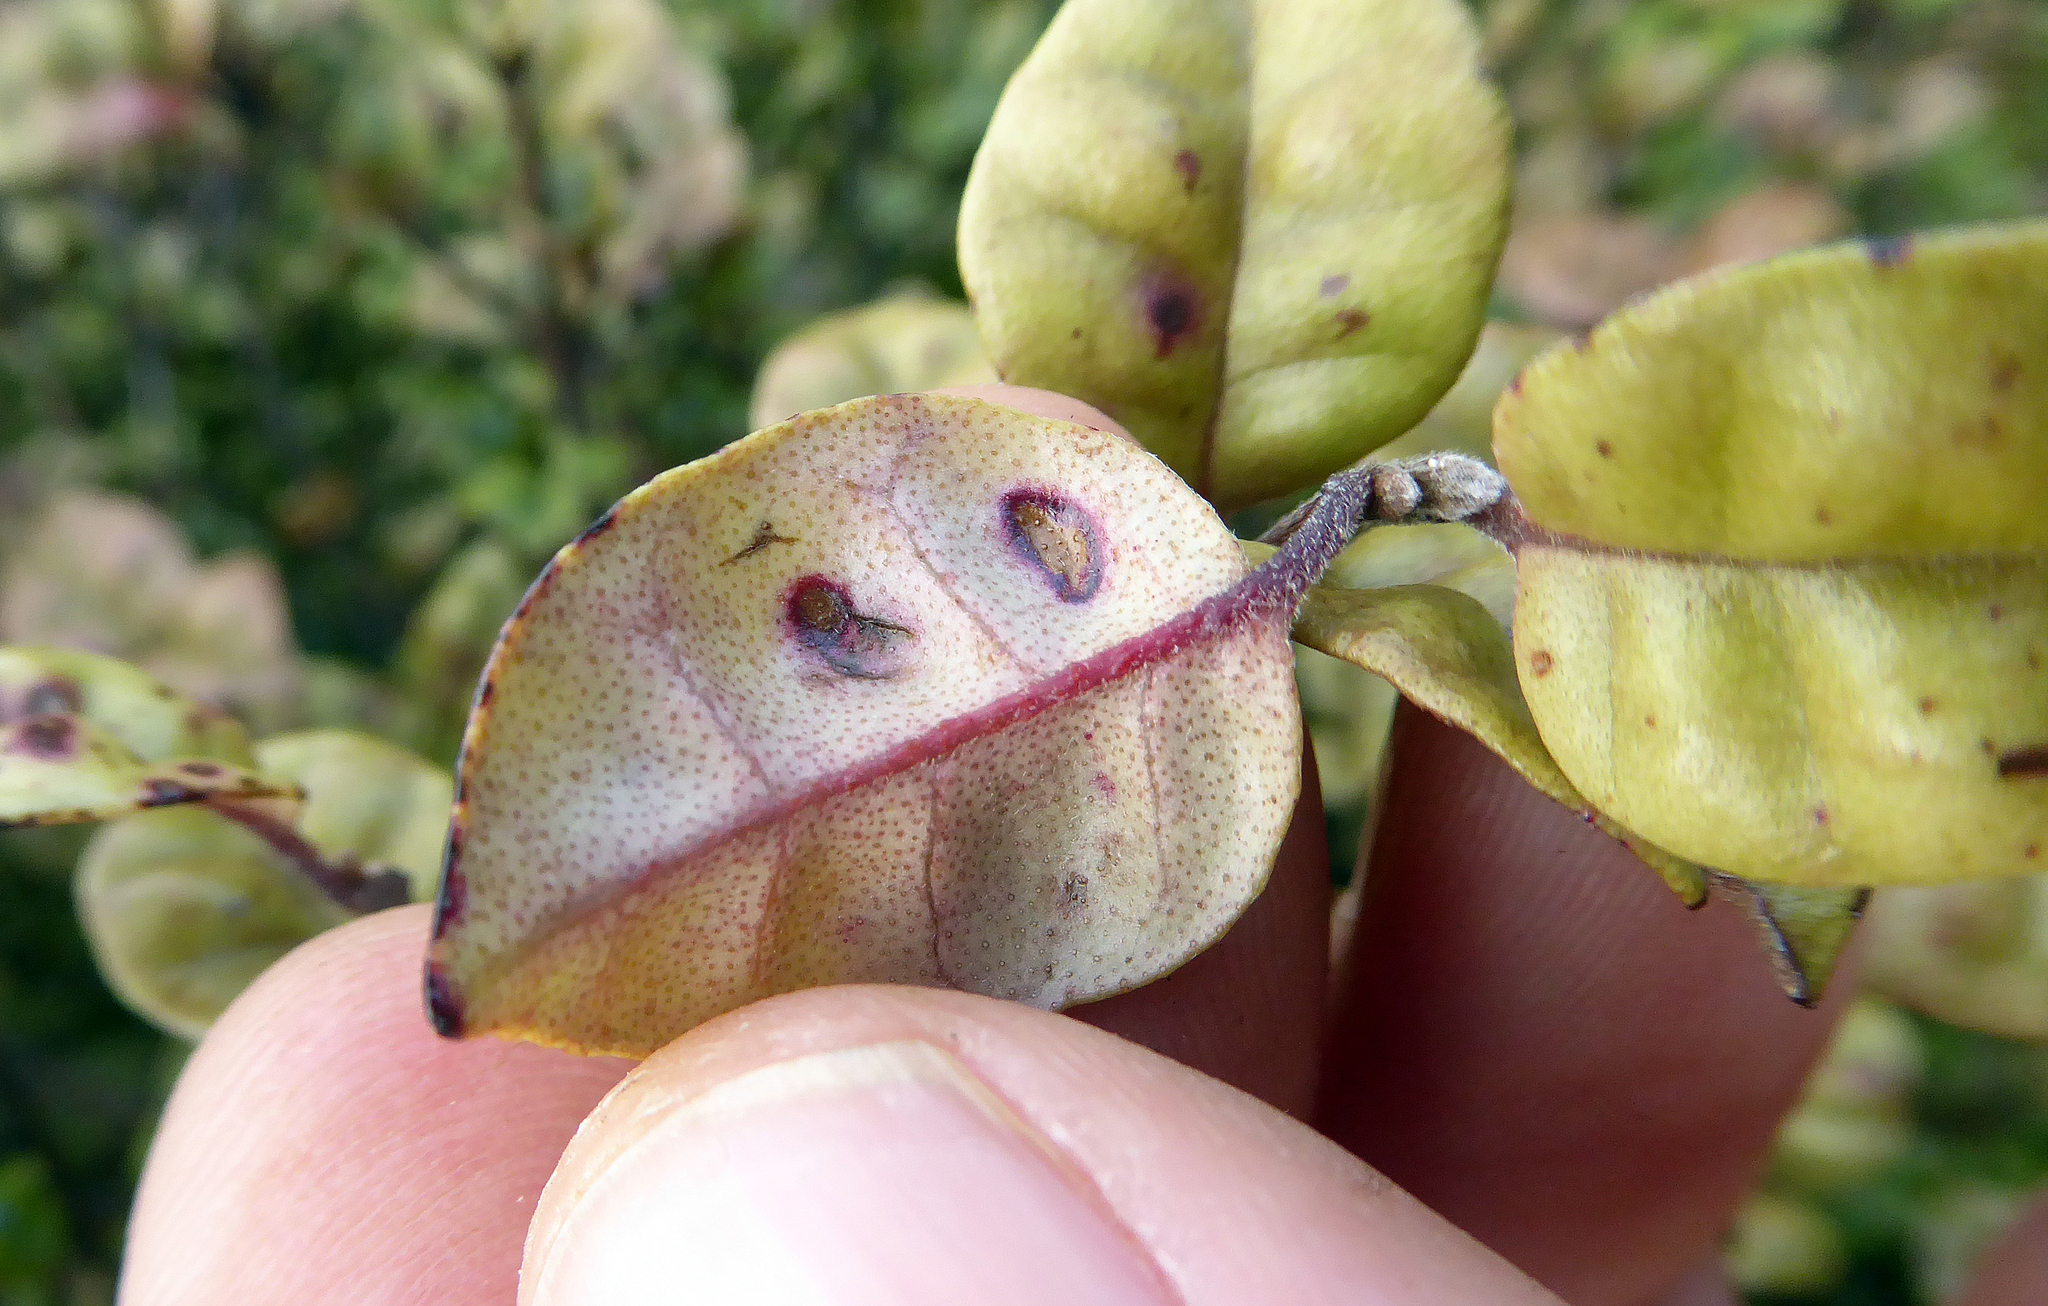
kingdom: Plantae
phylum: Tracheophyta
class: Magnoliopsida
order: Myrtales
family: Myrtaceae
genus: Lophomyrtus
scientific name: Lophomyrtus bullata
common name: Rama rama
